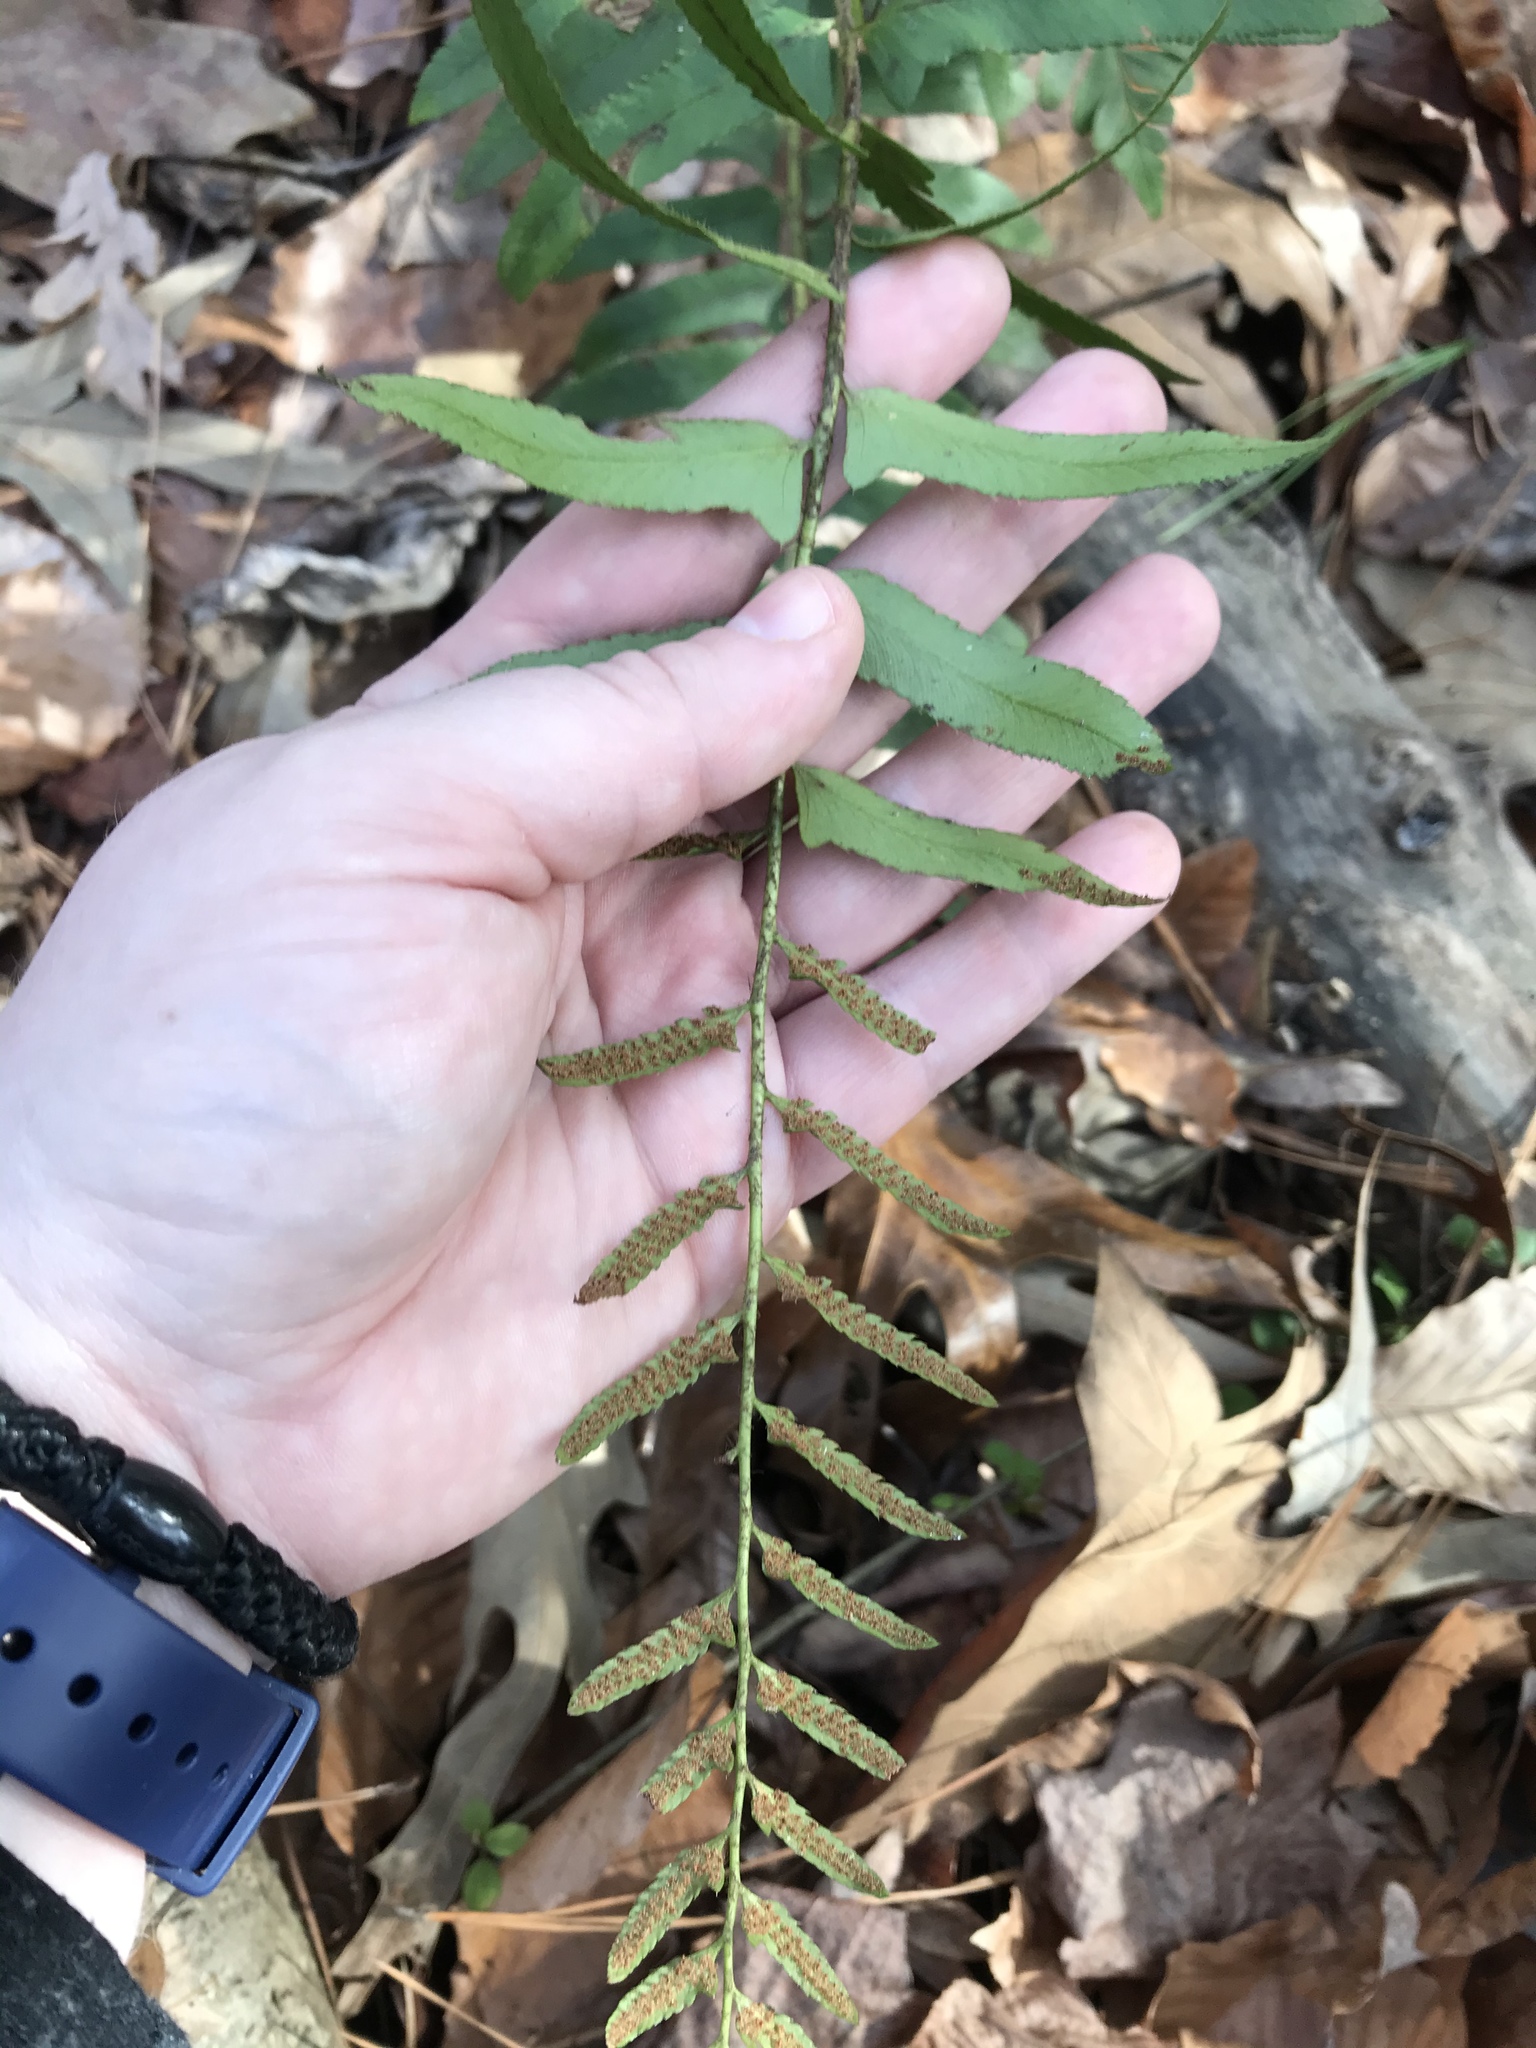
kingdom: Plantae
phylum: Tracheophyta
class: Polypodiopsida
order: Polypodiales
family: Dryopteridaceae
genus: Polystichum
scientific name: Polystichum acrostichoides
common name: Christmas fern
